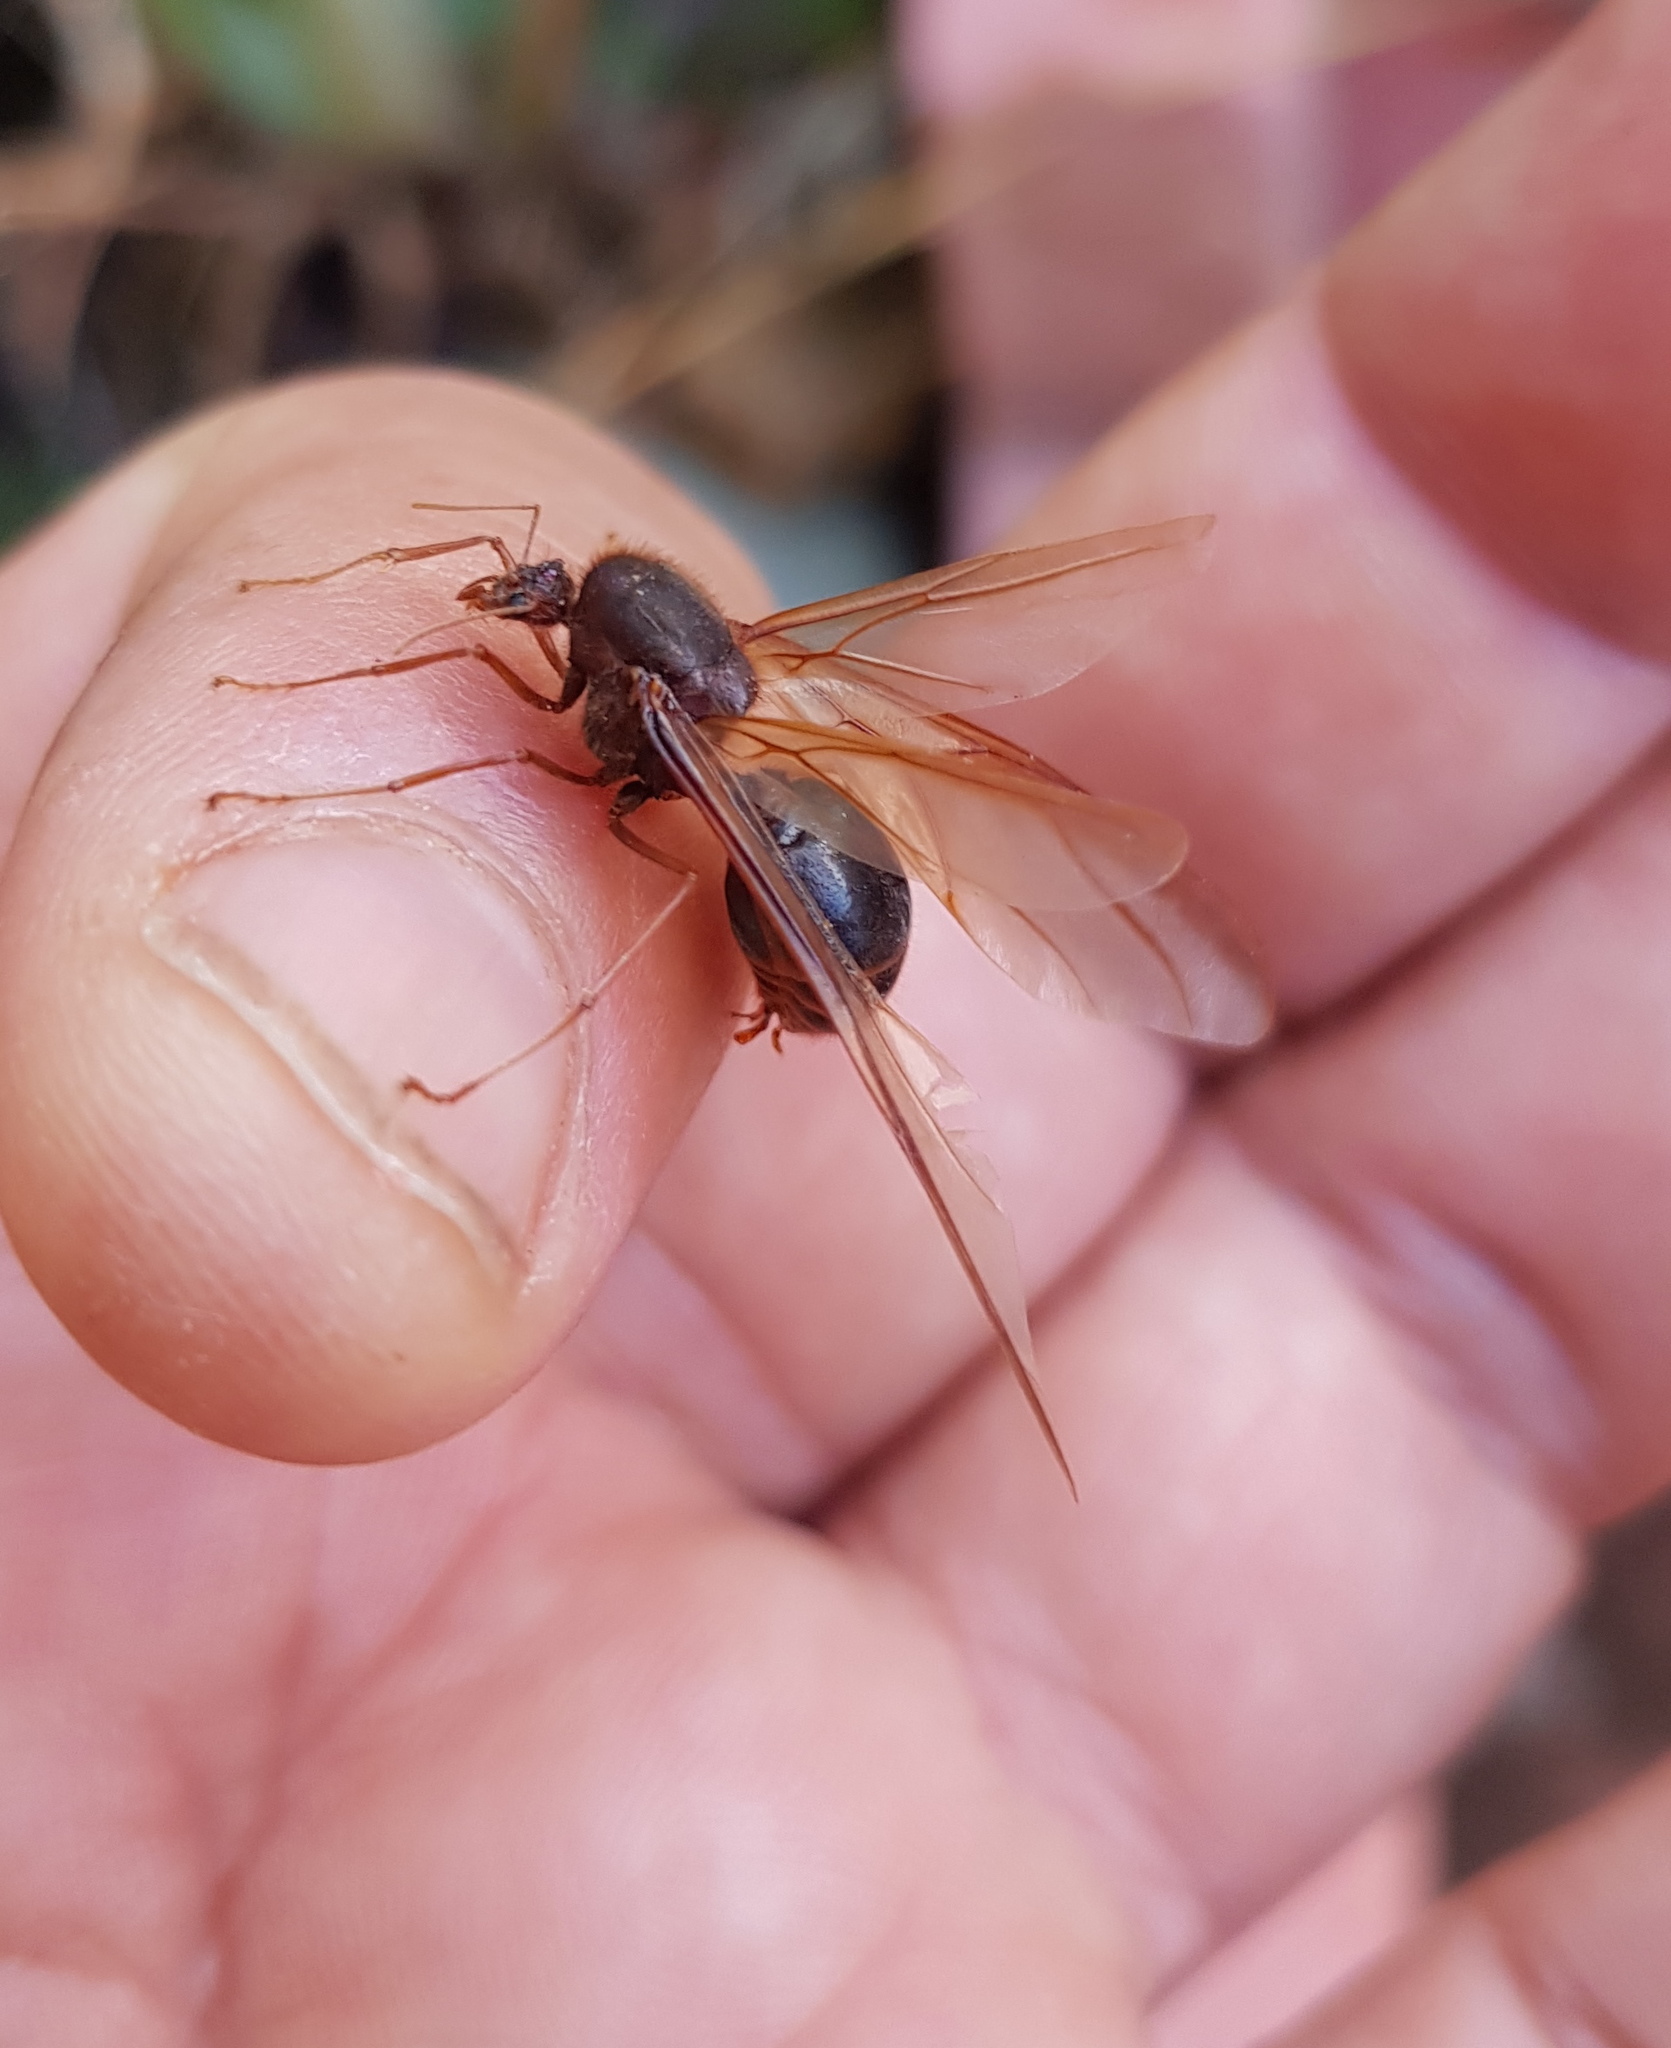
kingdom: Animalia
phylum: Arthropoda
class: Insecta
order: Hymenoptera
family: Formicidae
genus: Atta
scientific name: Atta mexicana
